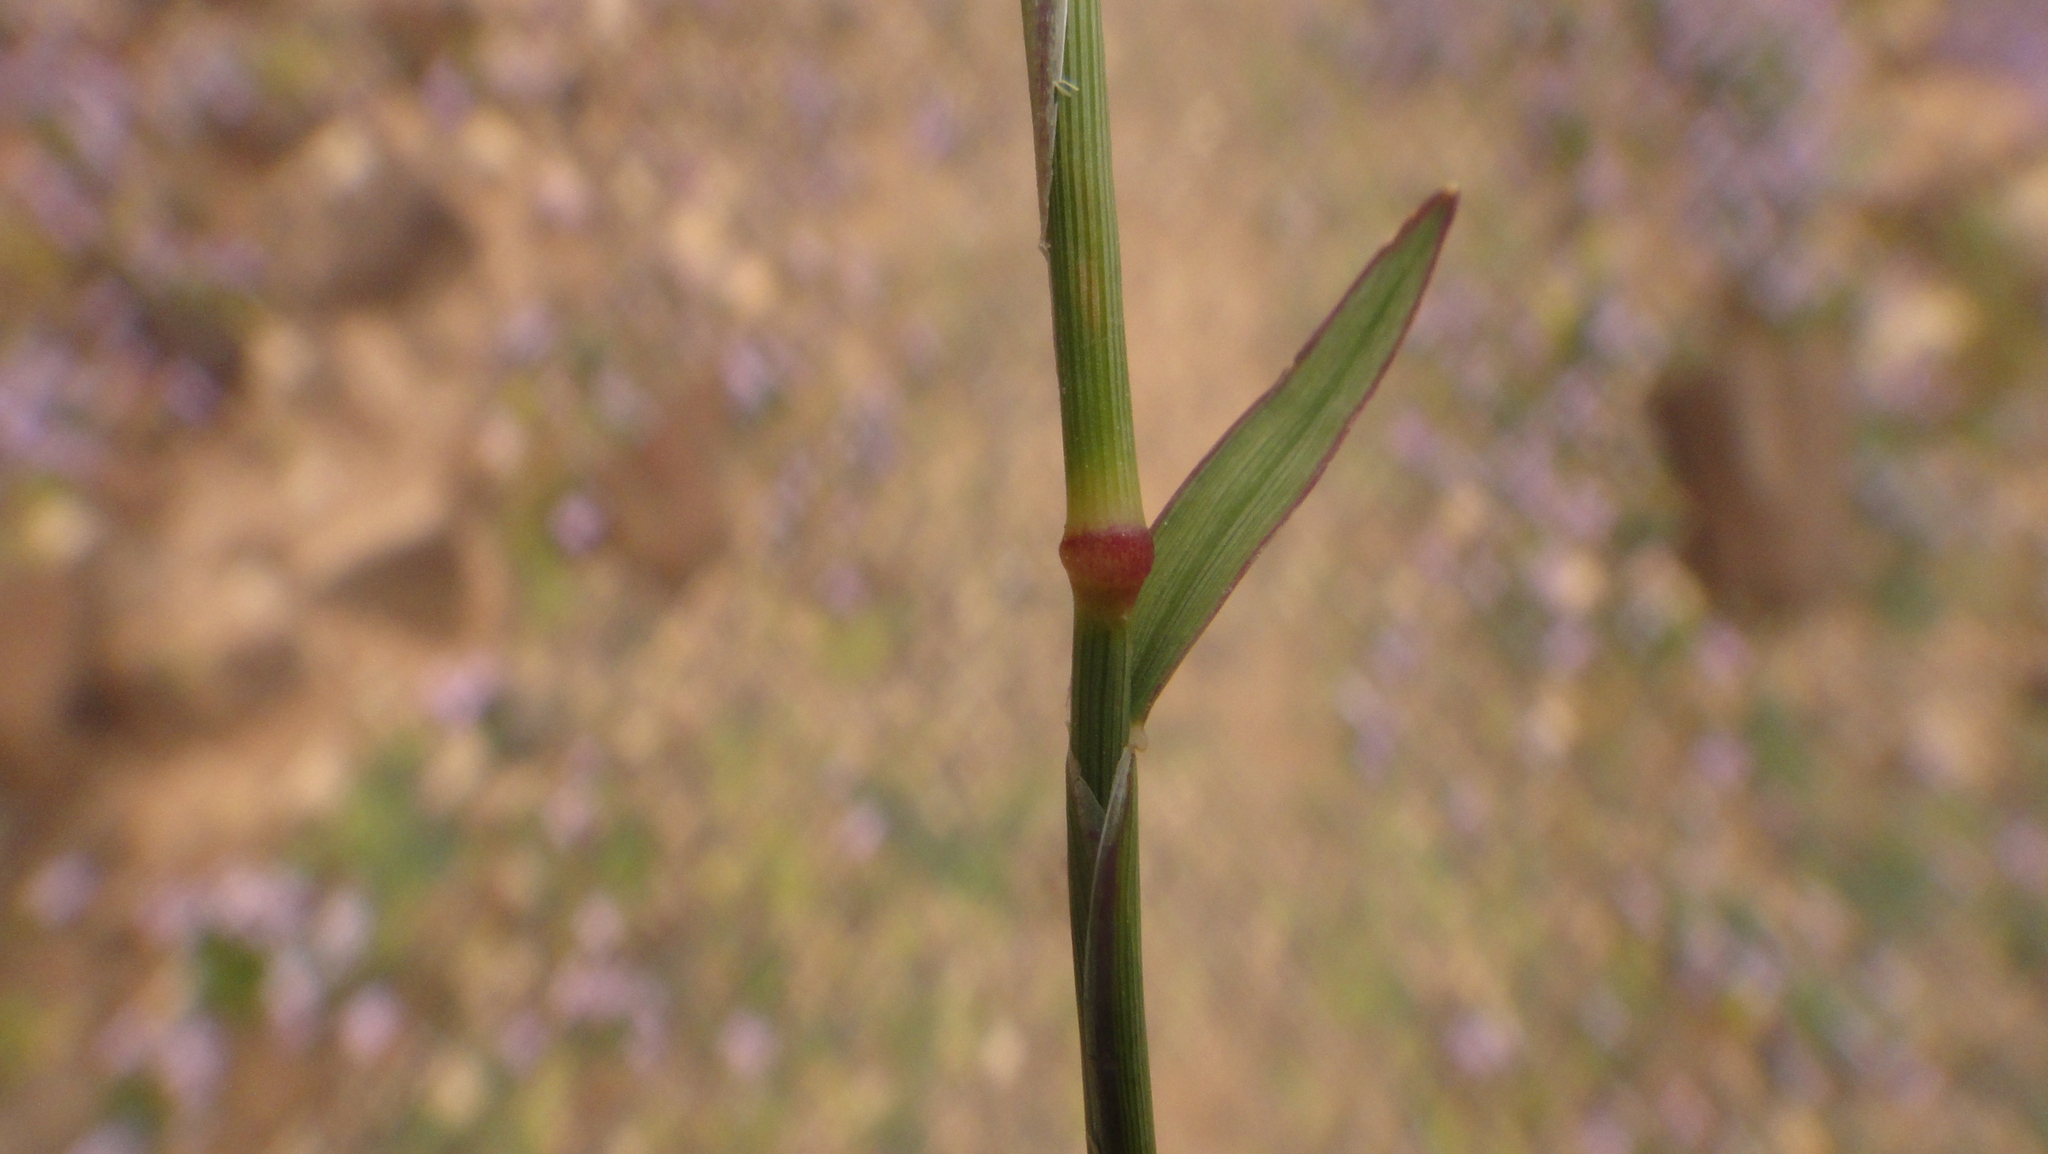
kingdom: Plantae
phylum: Tracheophyta
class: Liliopsida
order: Poales
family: Poaceae
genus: Tetrapogon
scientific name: Tetrapogon villosus
